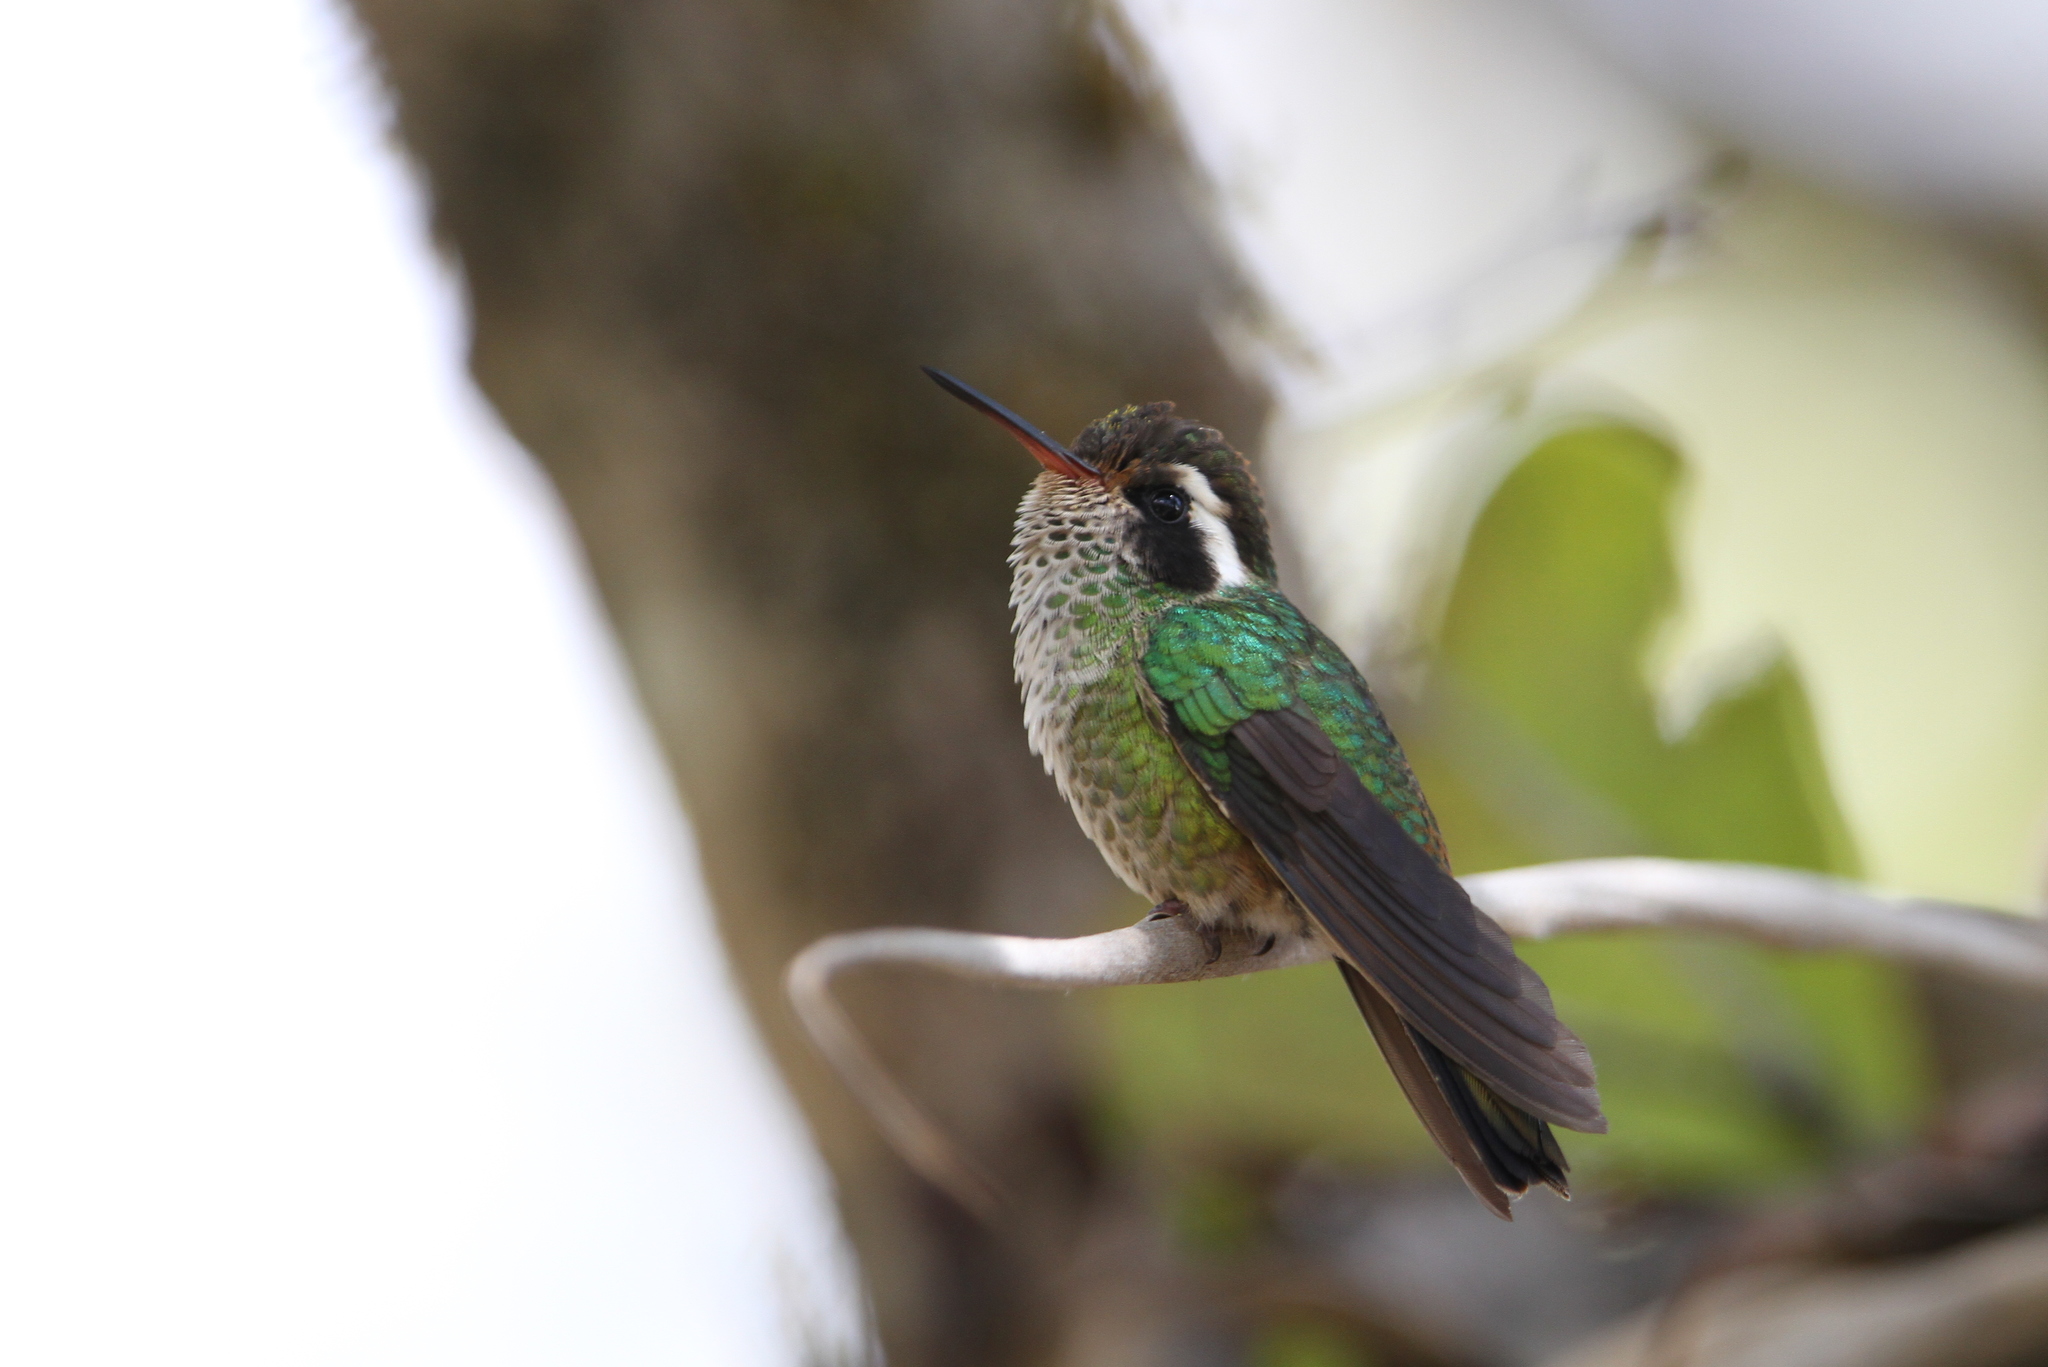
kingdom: Animalia
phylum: Chordata
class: Aves
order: Apodiformes
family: Trochilidae
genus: Basilinna
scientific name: Basilinna leucotis
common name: White-eared hummingbird
